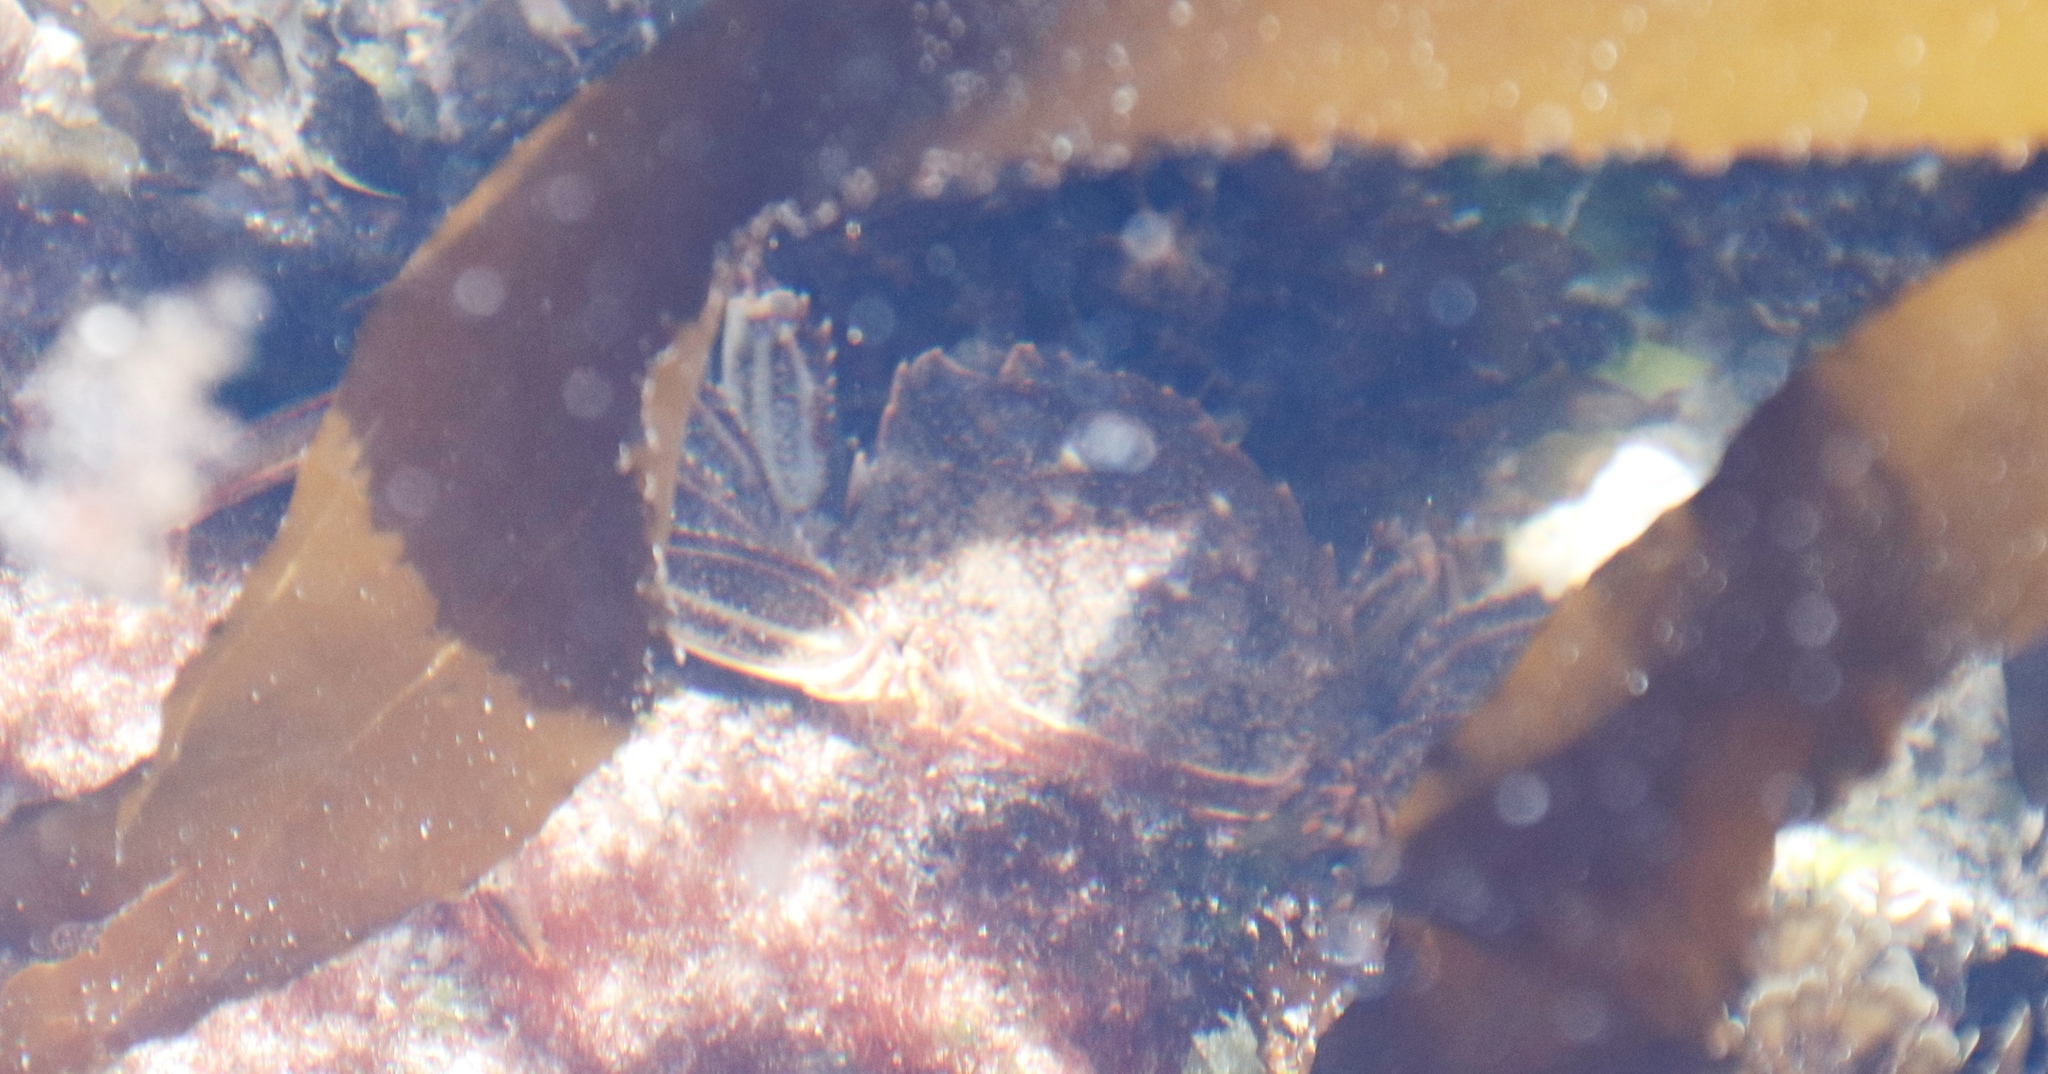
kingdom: Animalia
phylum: Arthropoda
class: Malacostraca
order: Decapoda
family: Plagusiidae
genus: Guinusia
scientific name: Guinusia chabrus
